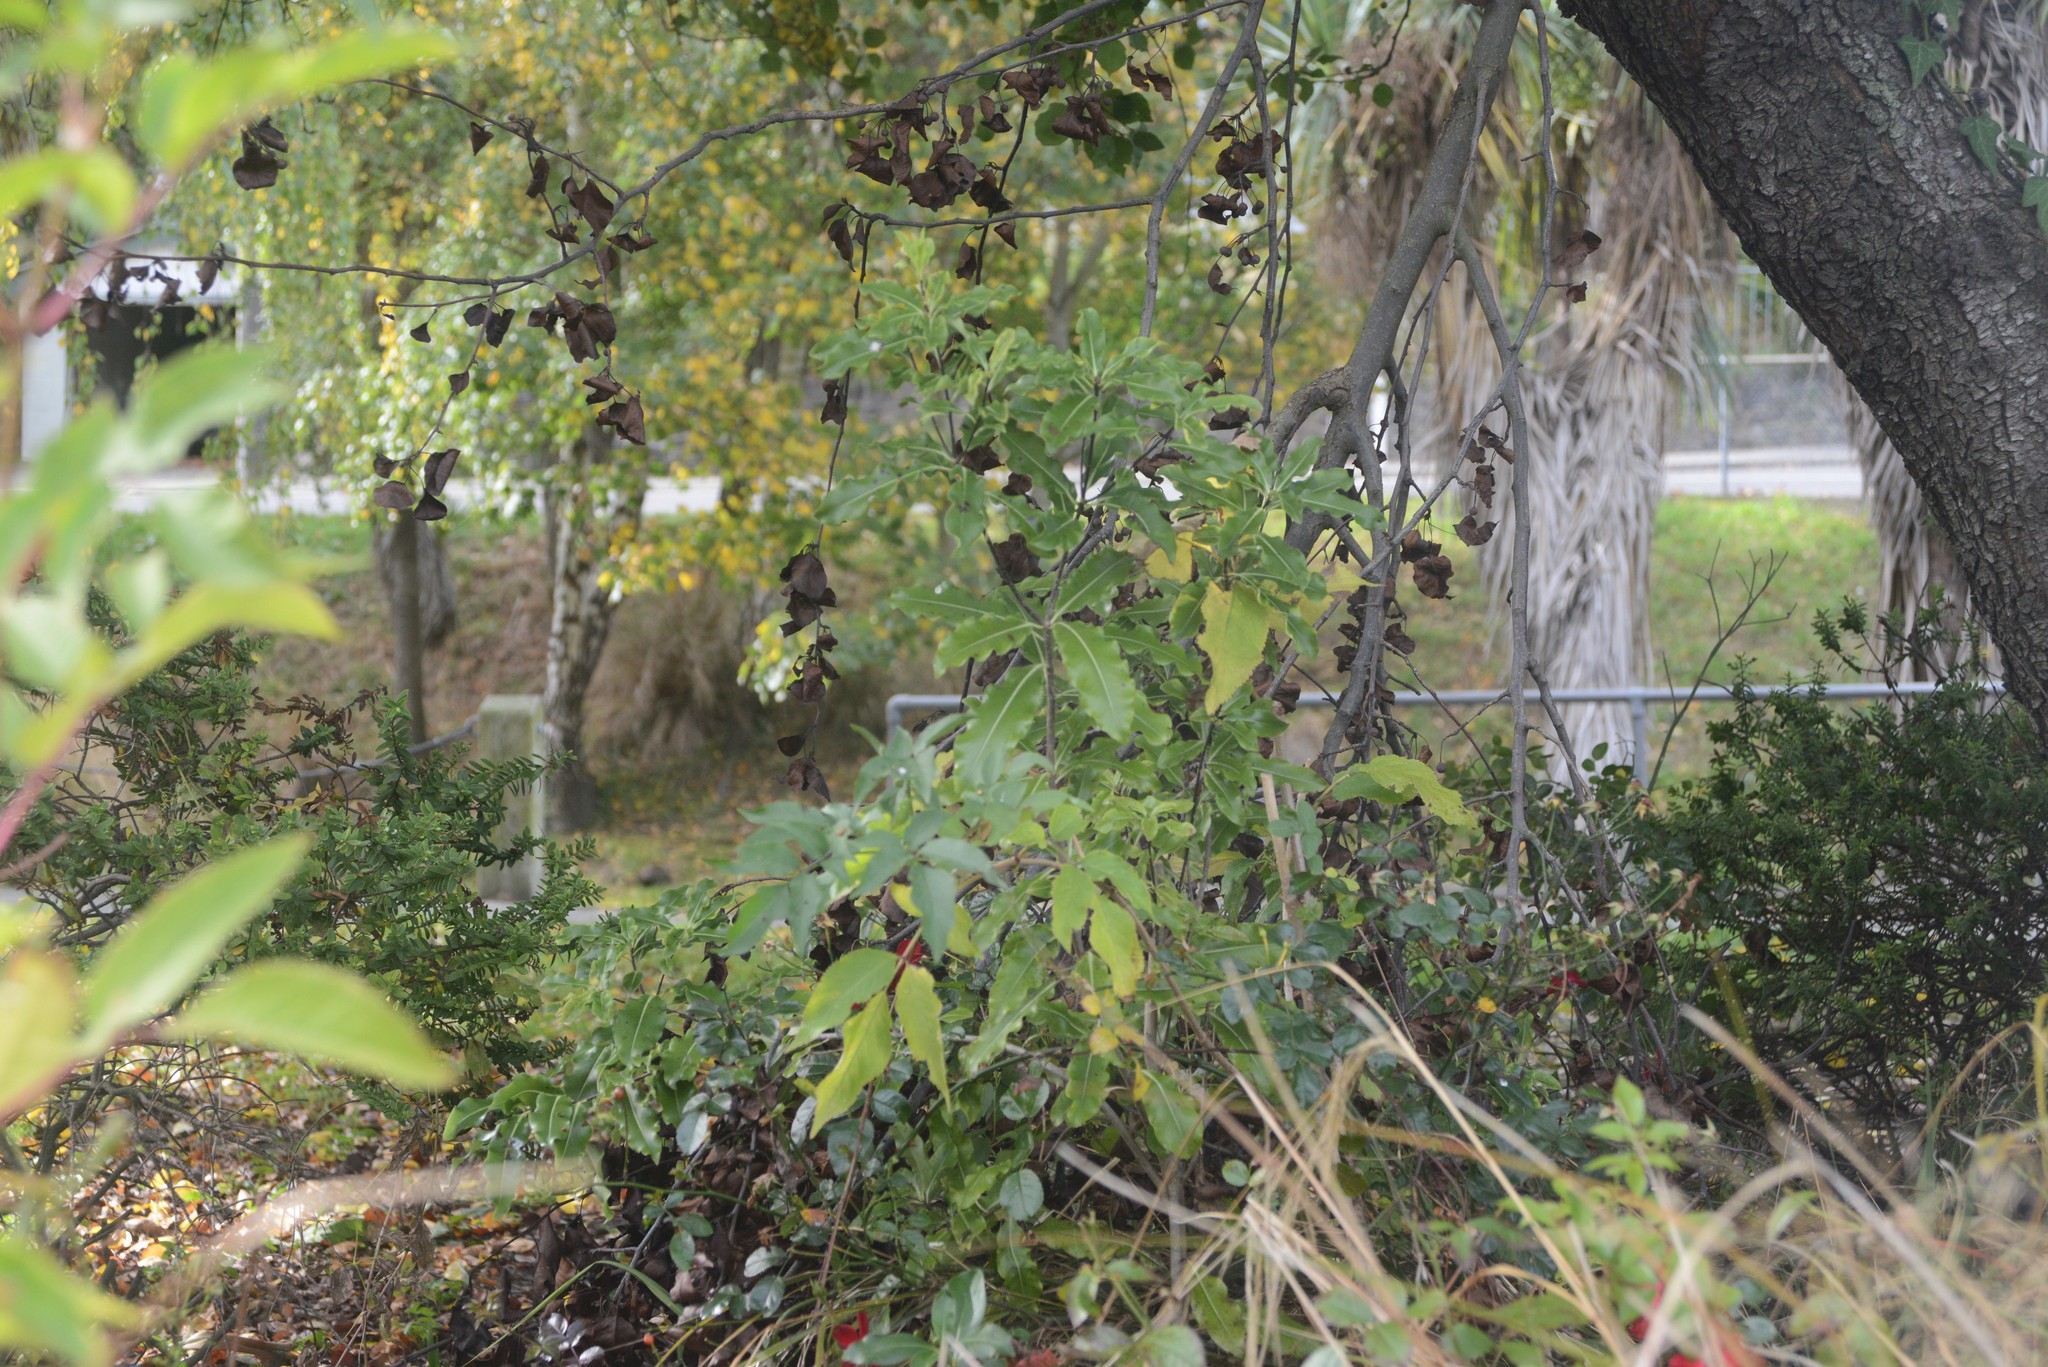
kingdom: Plantae
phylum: Tracheophyta
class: Magnoliopsida
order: Apiales
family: Pittosporaceae
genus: Pittosporum
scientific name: Pittosporum eugenioides
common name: Lemonwood
